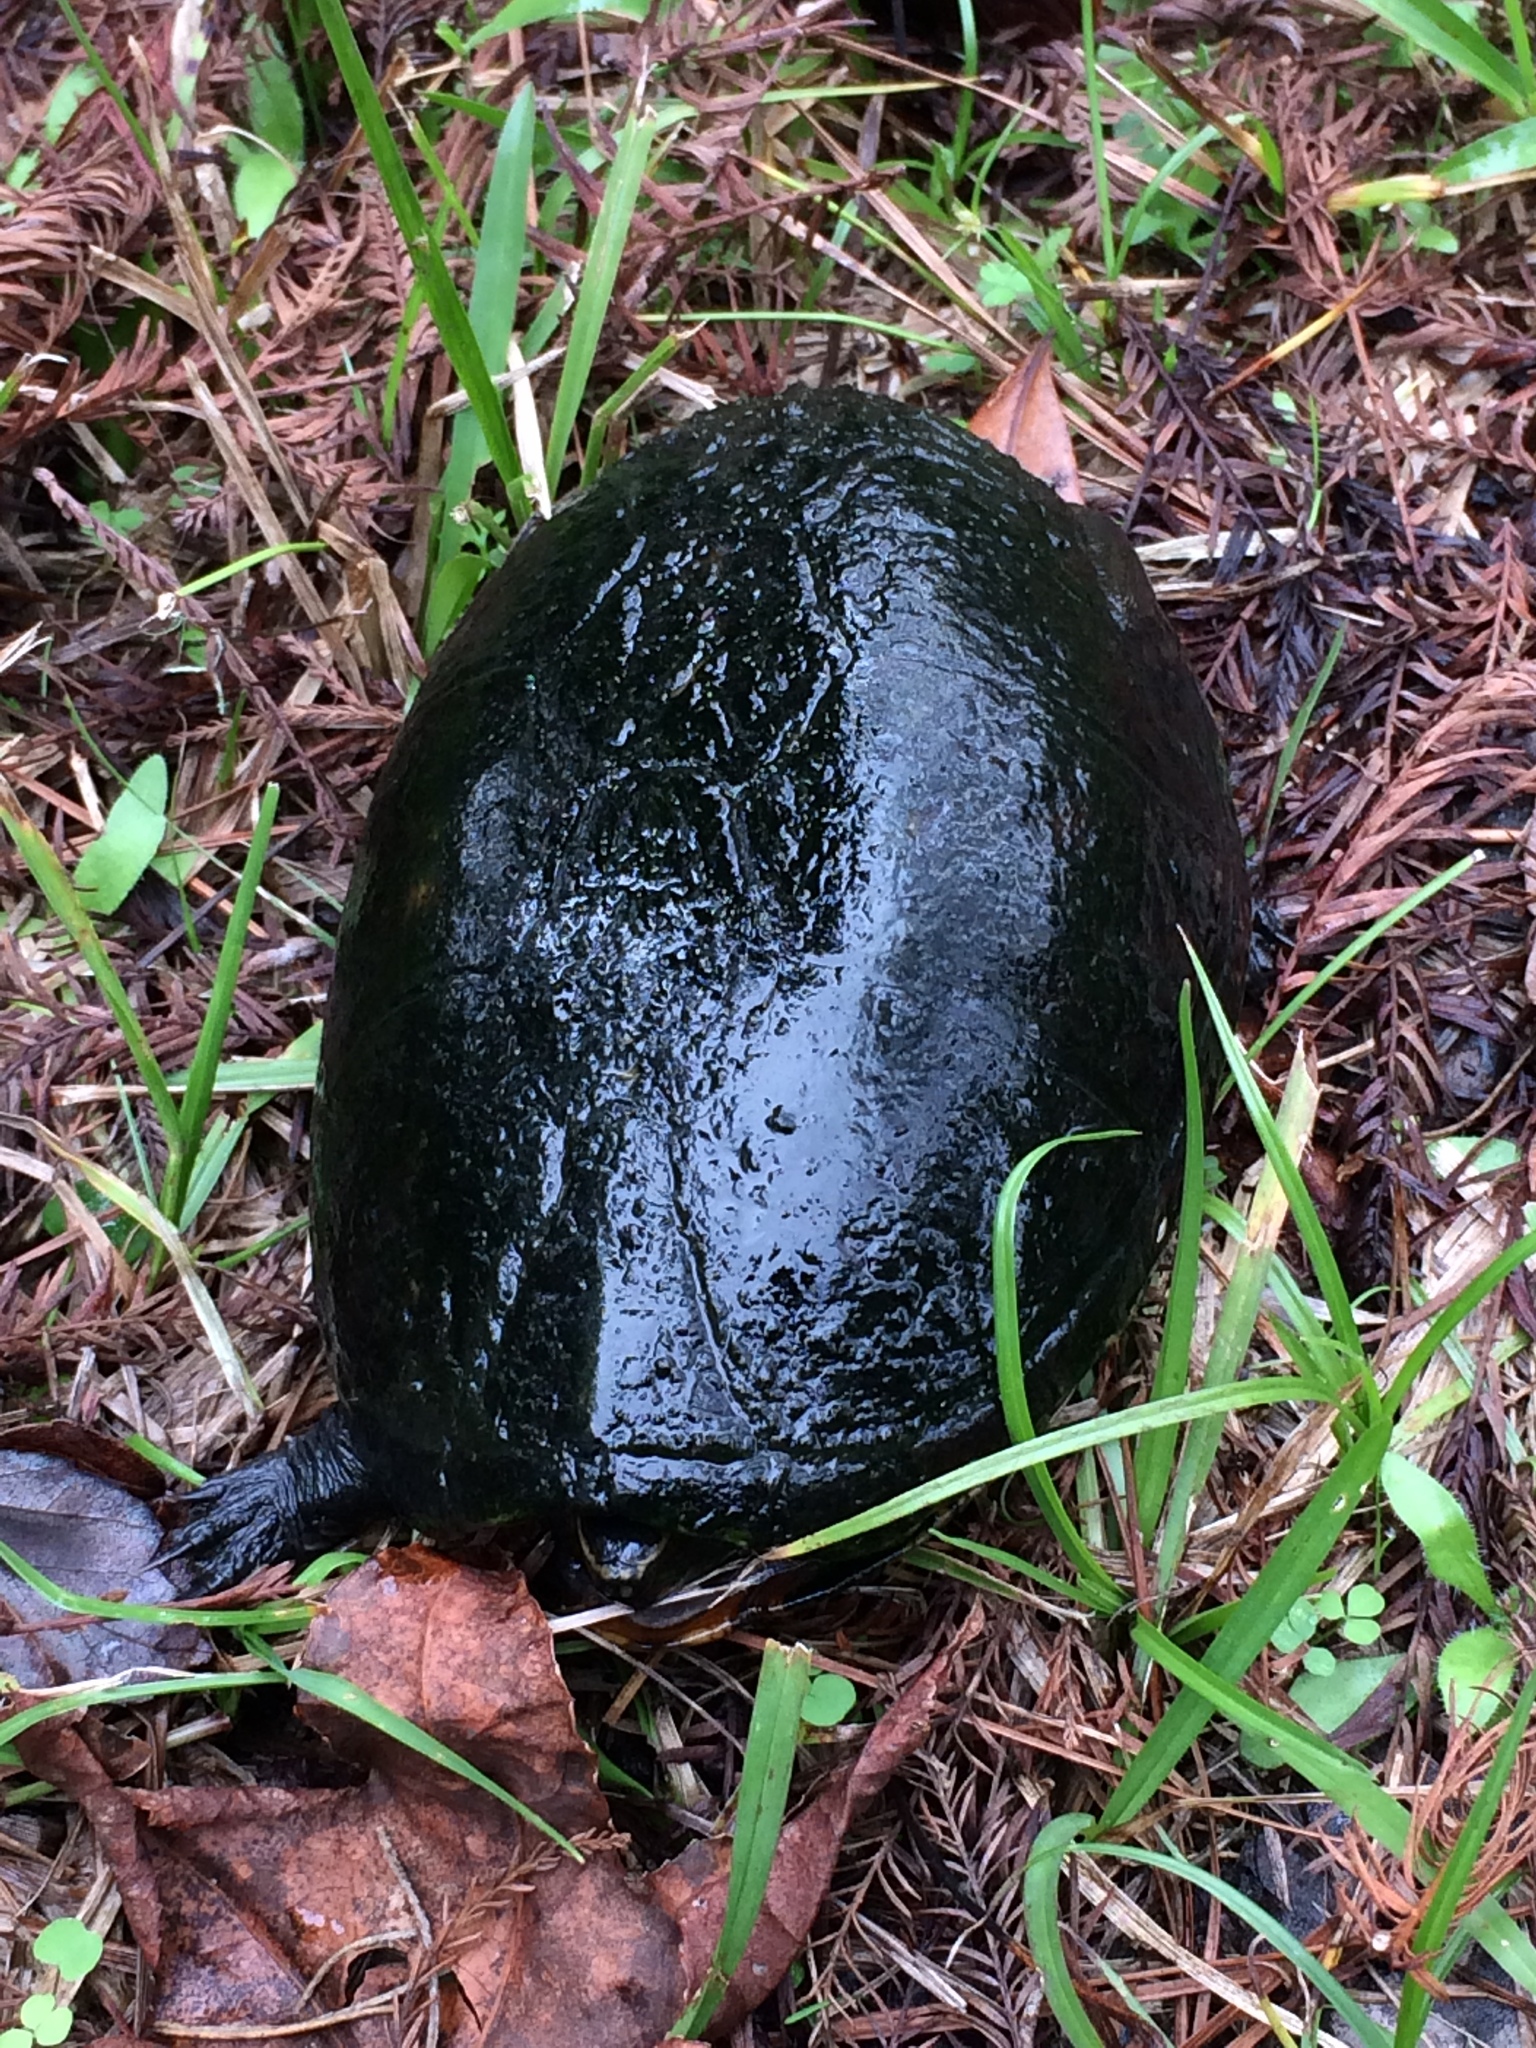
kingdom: Animalia
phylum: Chordata
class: Testudines
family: Kinosternidae
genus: Kinosternon
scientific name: Kinosternon baurii
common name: Striped mud turtle
